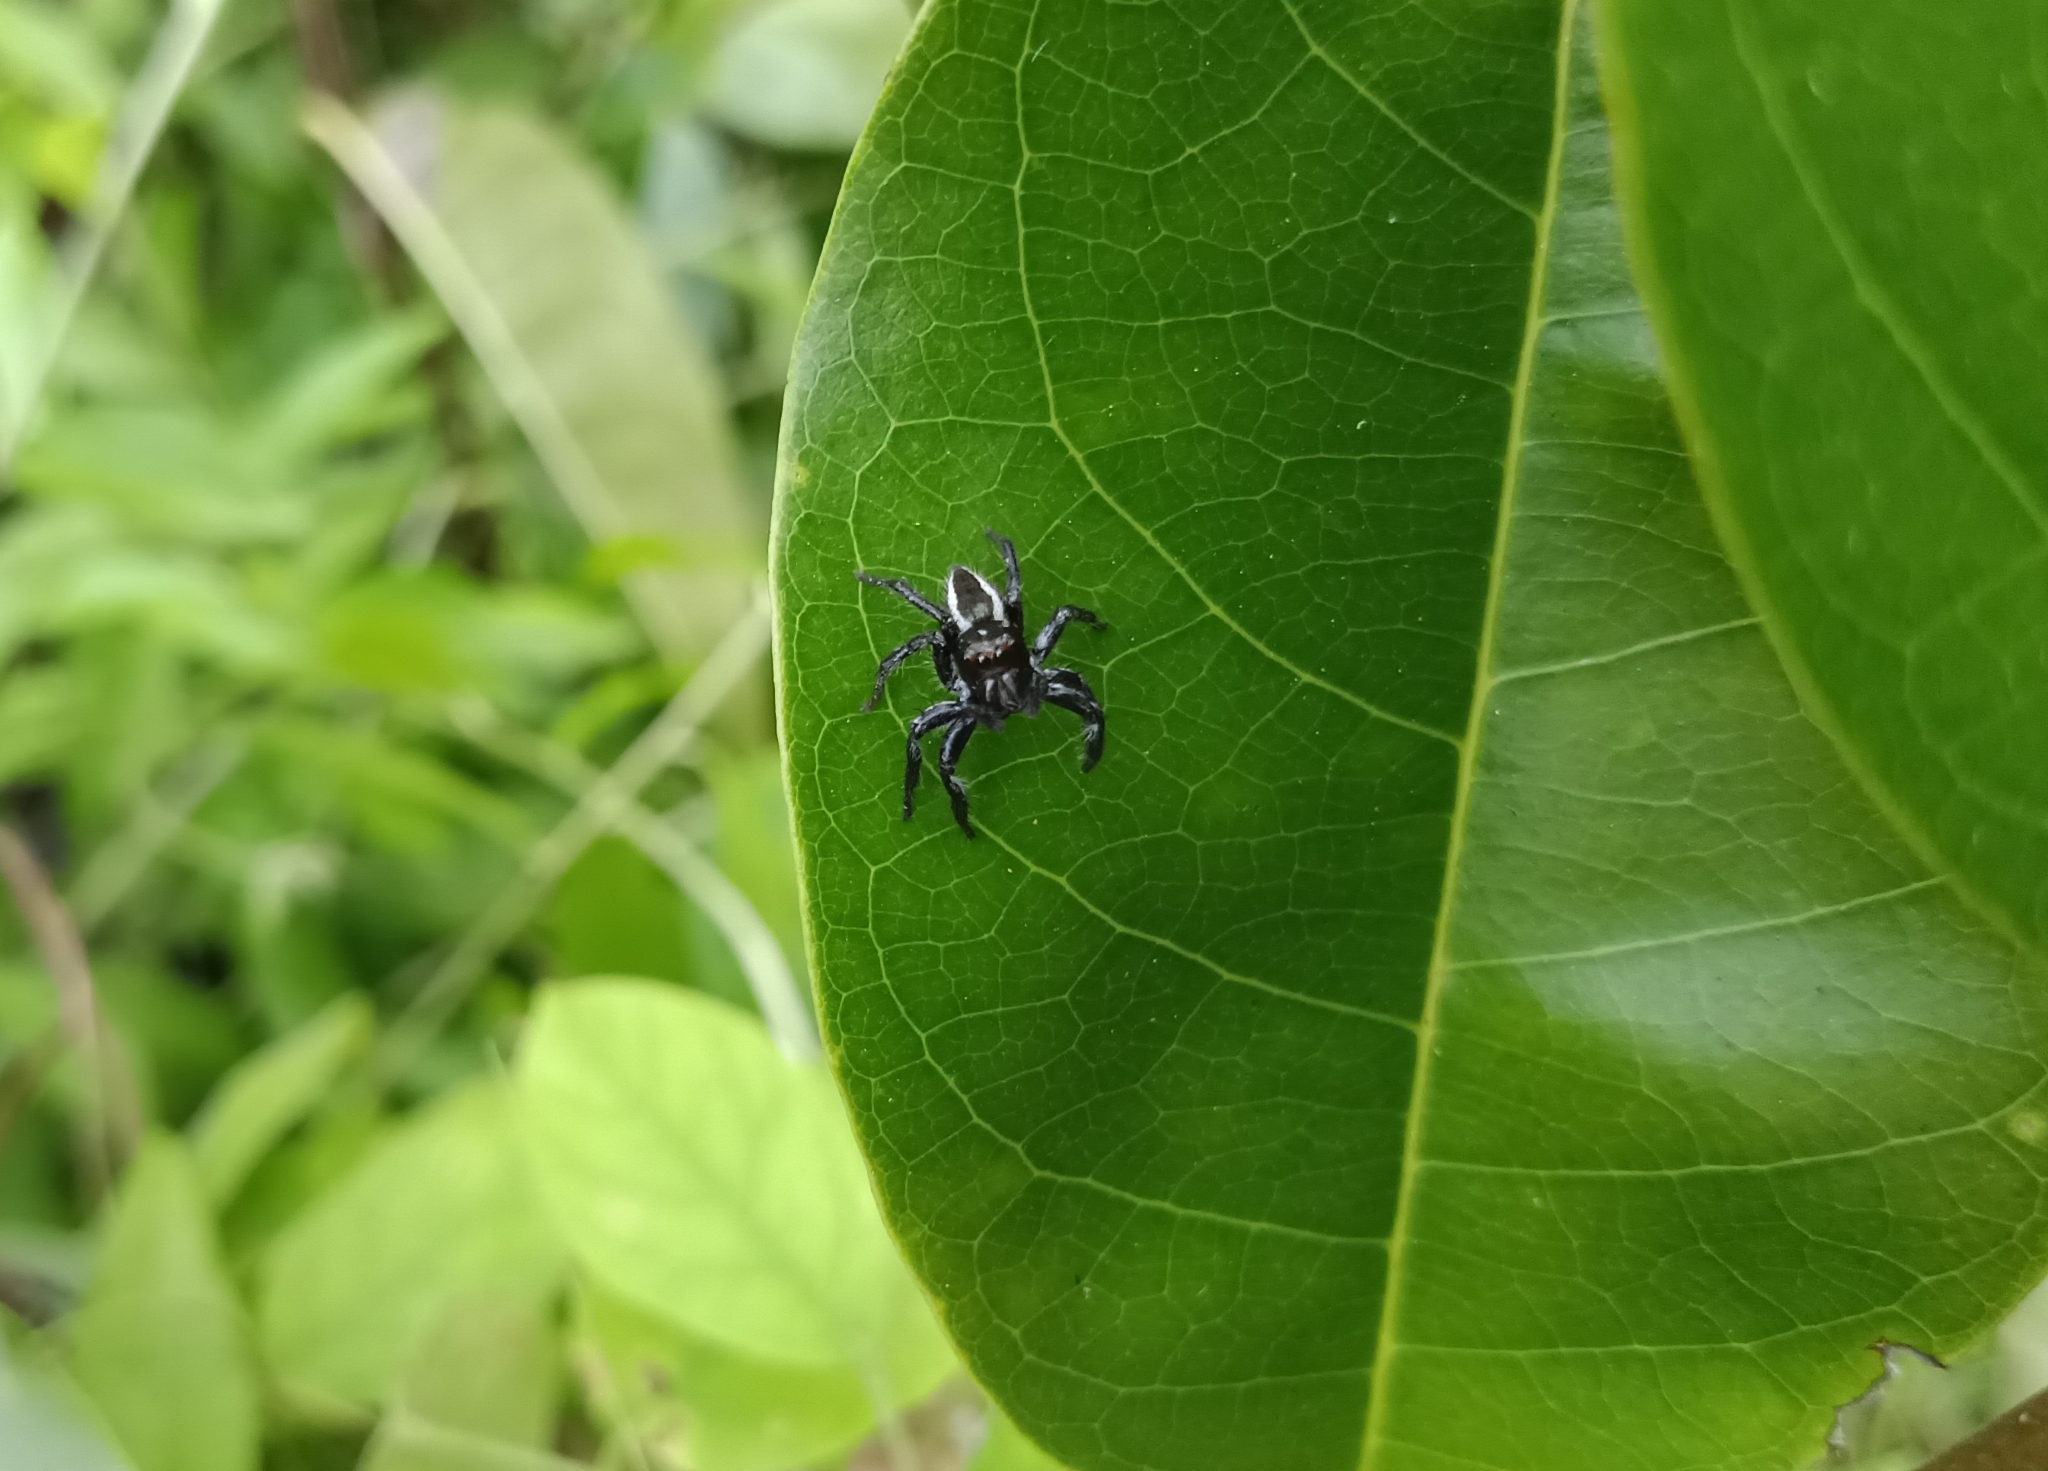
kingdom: Animalia
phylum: Arthropoda
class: Arachnida
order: Araneae
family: Salticidae
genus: Carrhotus
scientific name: Carrhotus viduus
